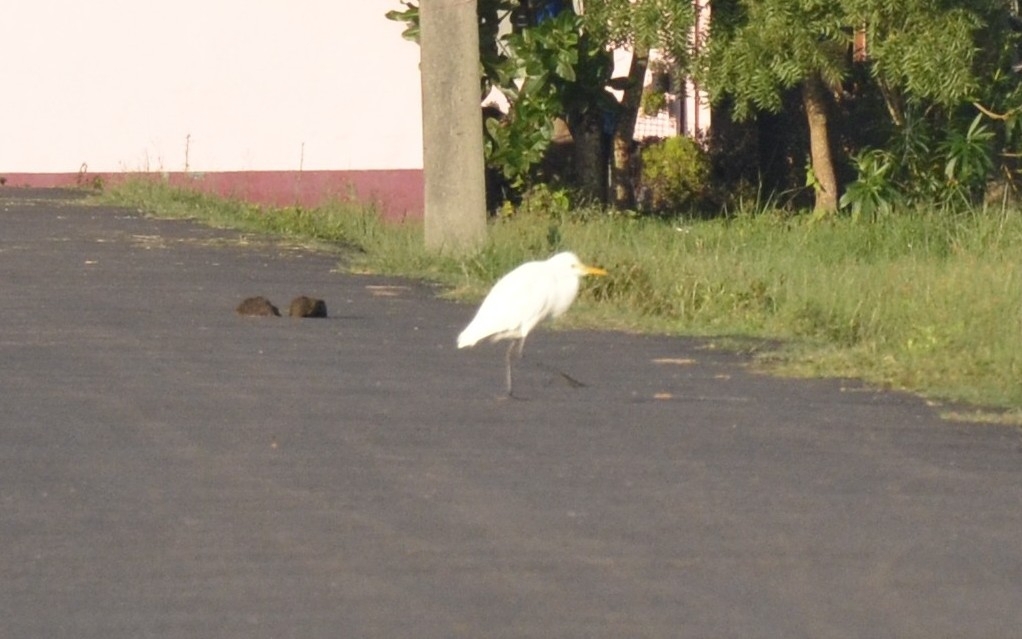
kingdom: Animalia
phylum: Chordata
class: Aves
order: Pelecaniformes
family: Ardeidae
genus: Bubulcus
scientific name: Bubulcus coromandus
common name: Eastern cattle egret
